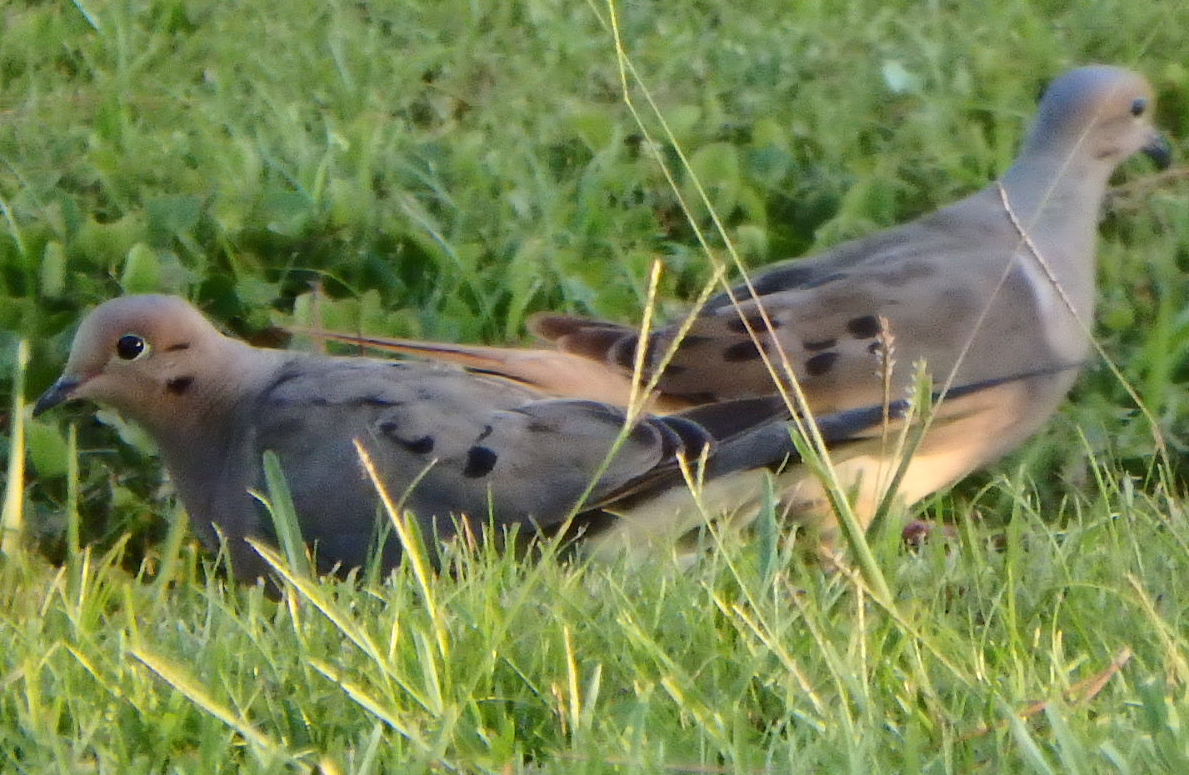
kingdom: Animalia
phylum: Chordata
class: Aves
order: Columbiformes
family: Columbidae
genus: Zenaida
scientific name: Zenaida macroura
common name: Mourning dove
